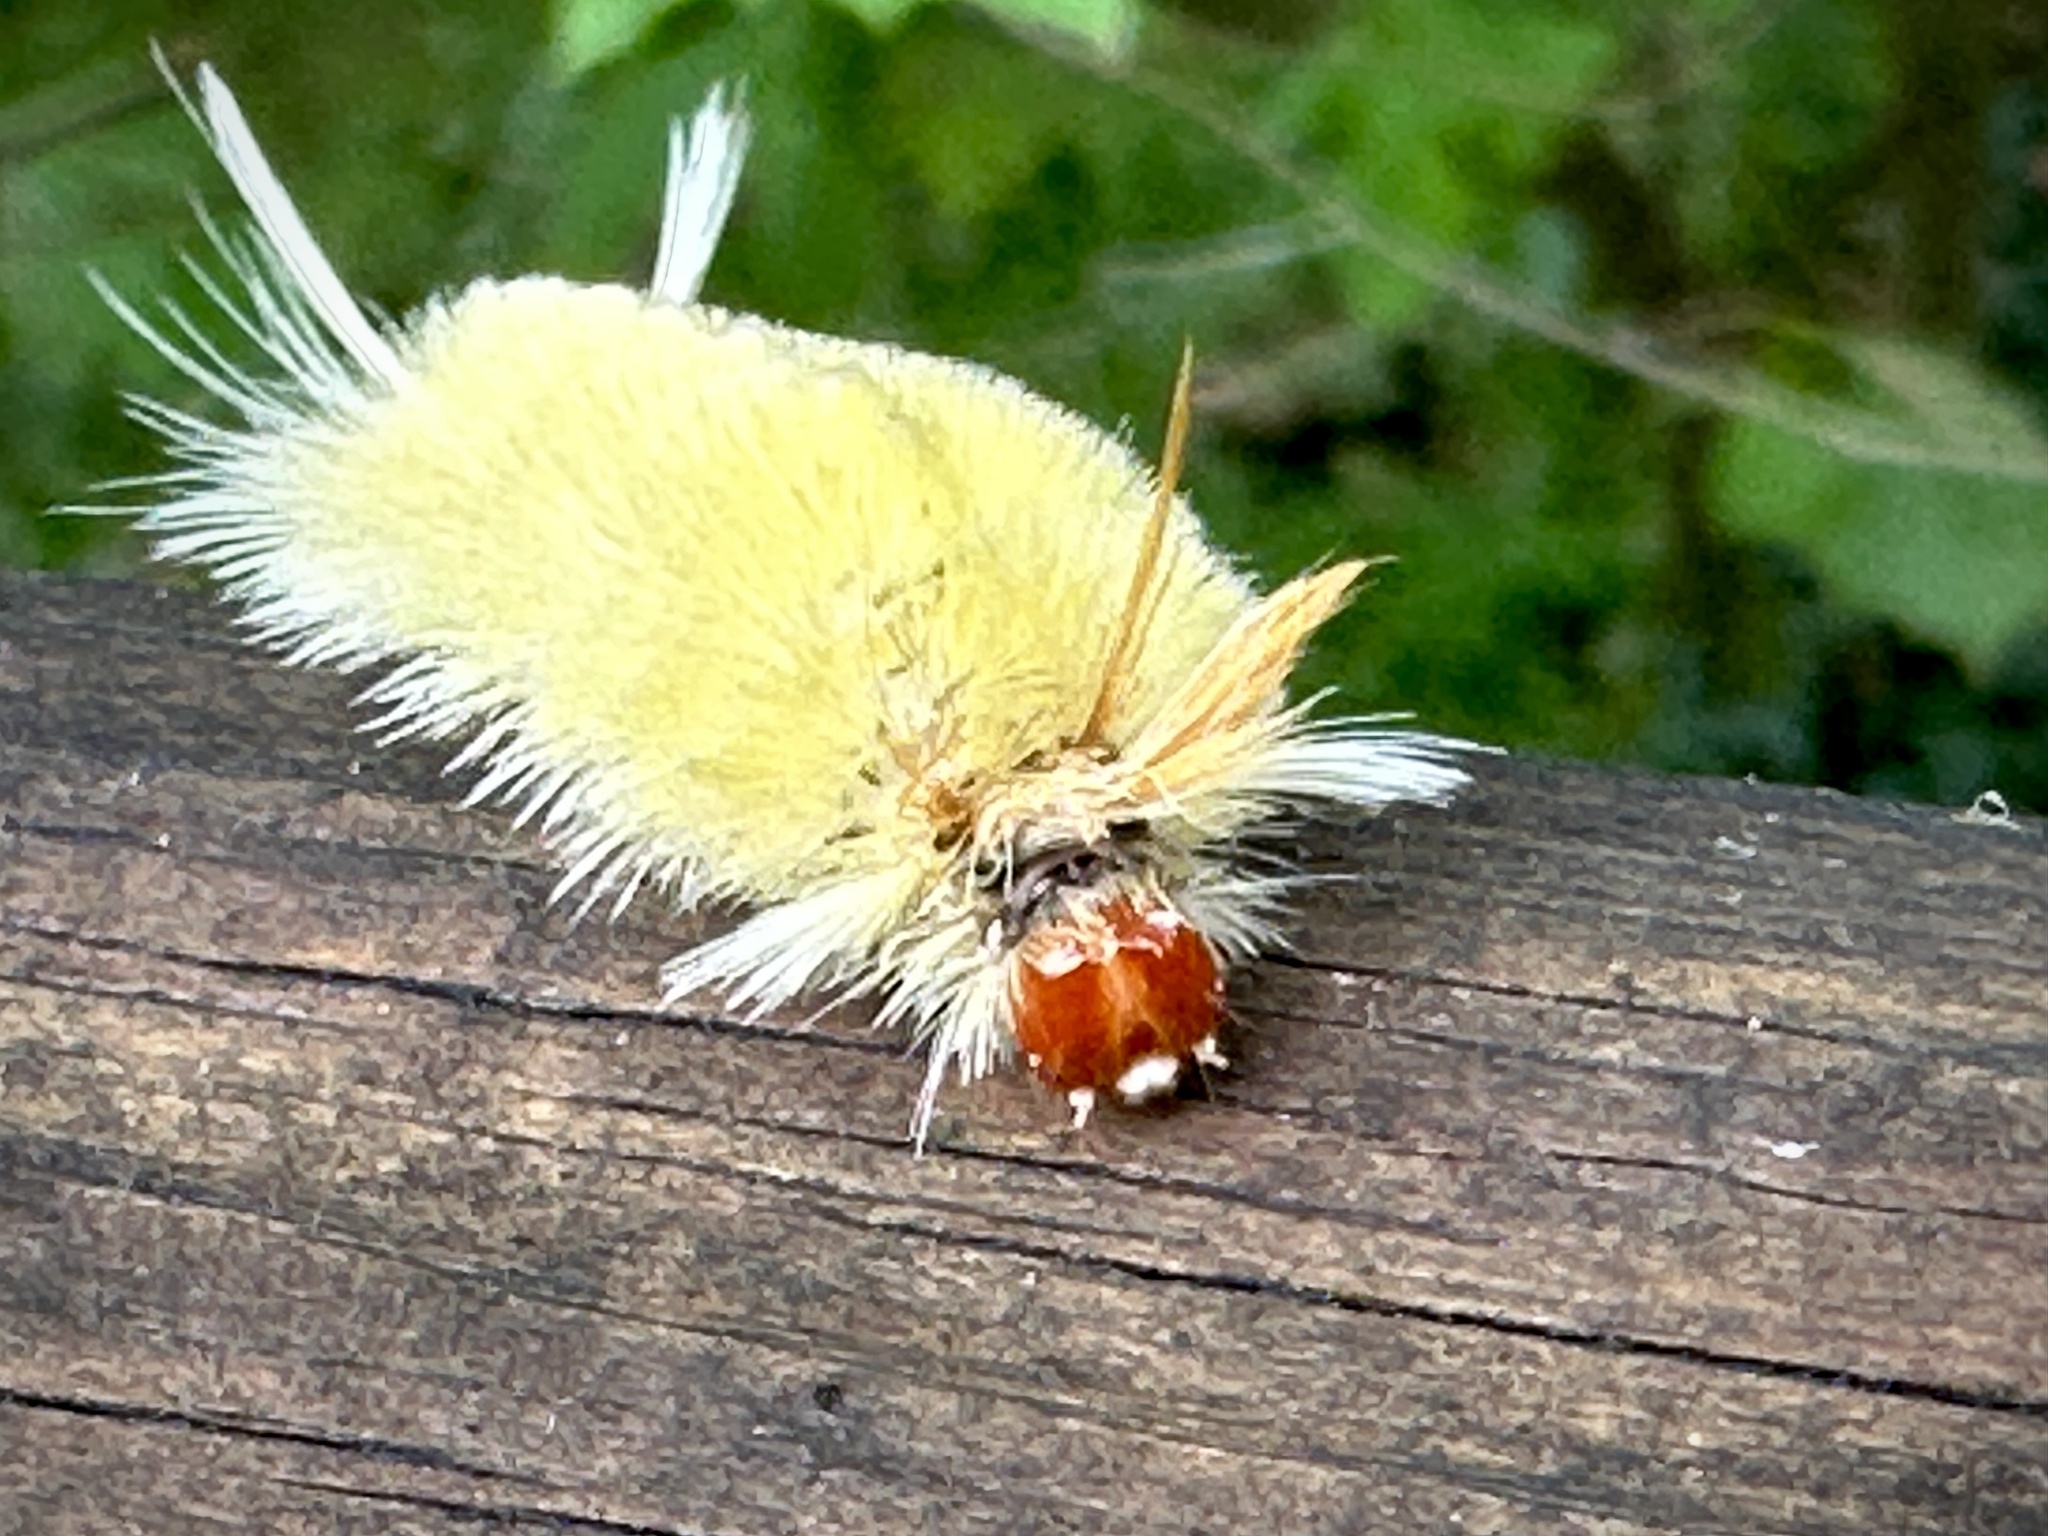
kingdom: Animalia
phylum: Arthropoda
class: Insecta
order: Lepidoptera
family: Erebidae
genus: Halysidota
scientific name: Halysidota harrisii
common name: Sycamore tussock moth
